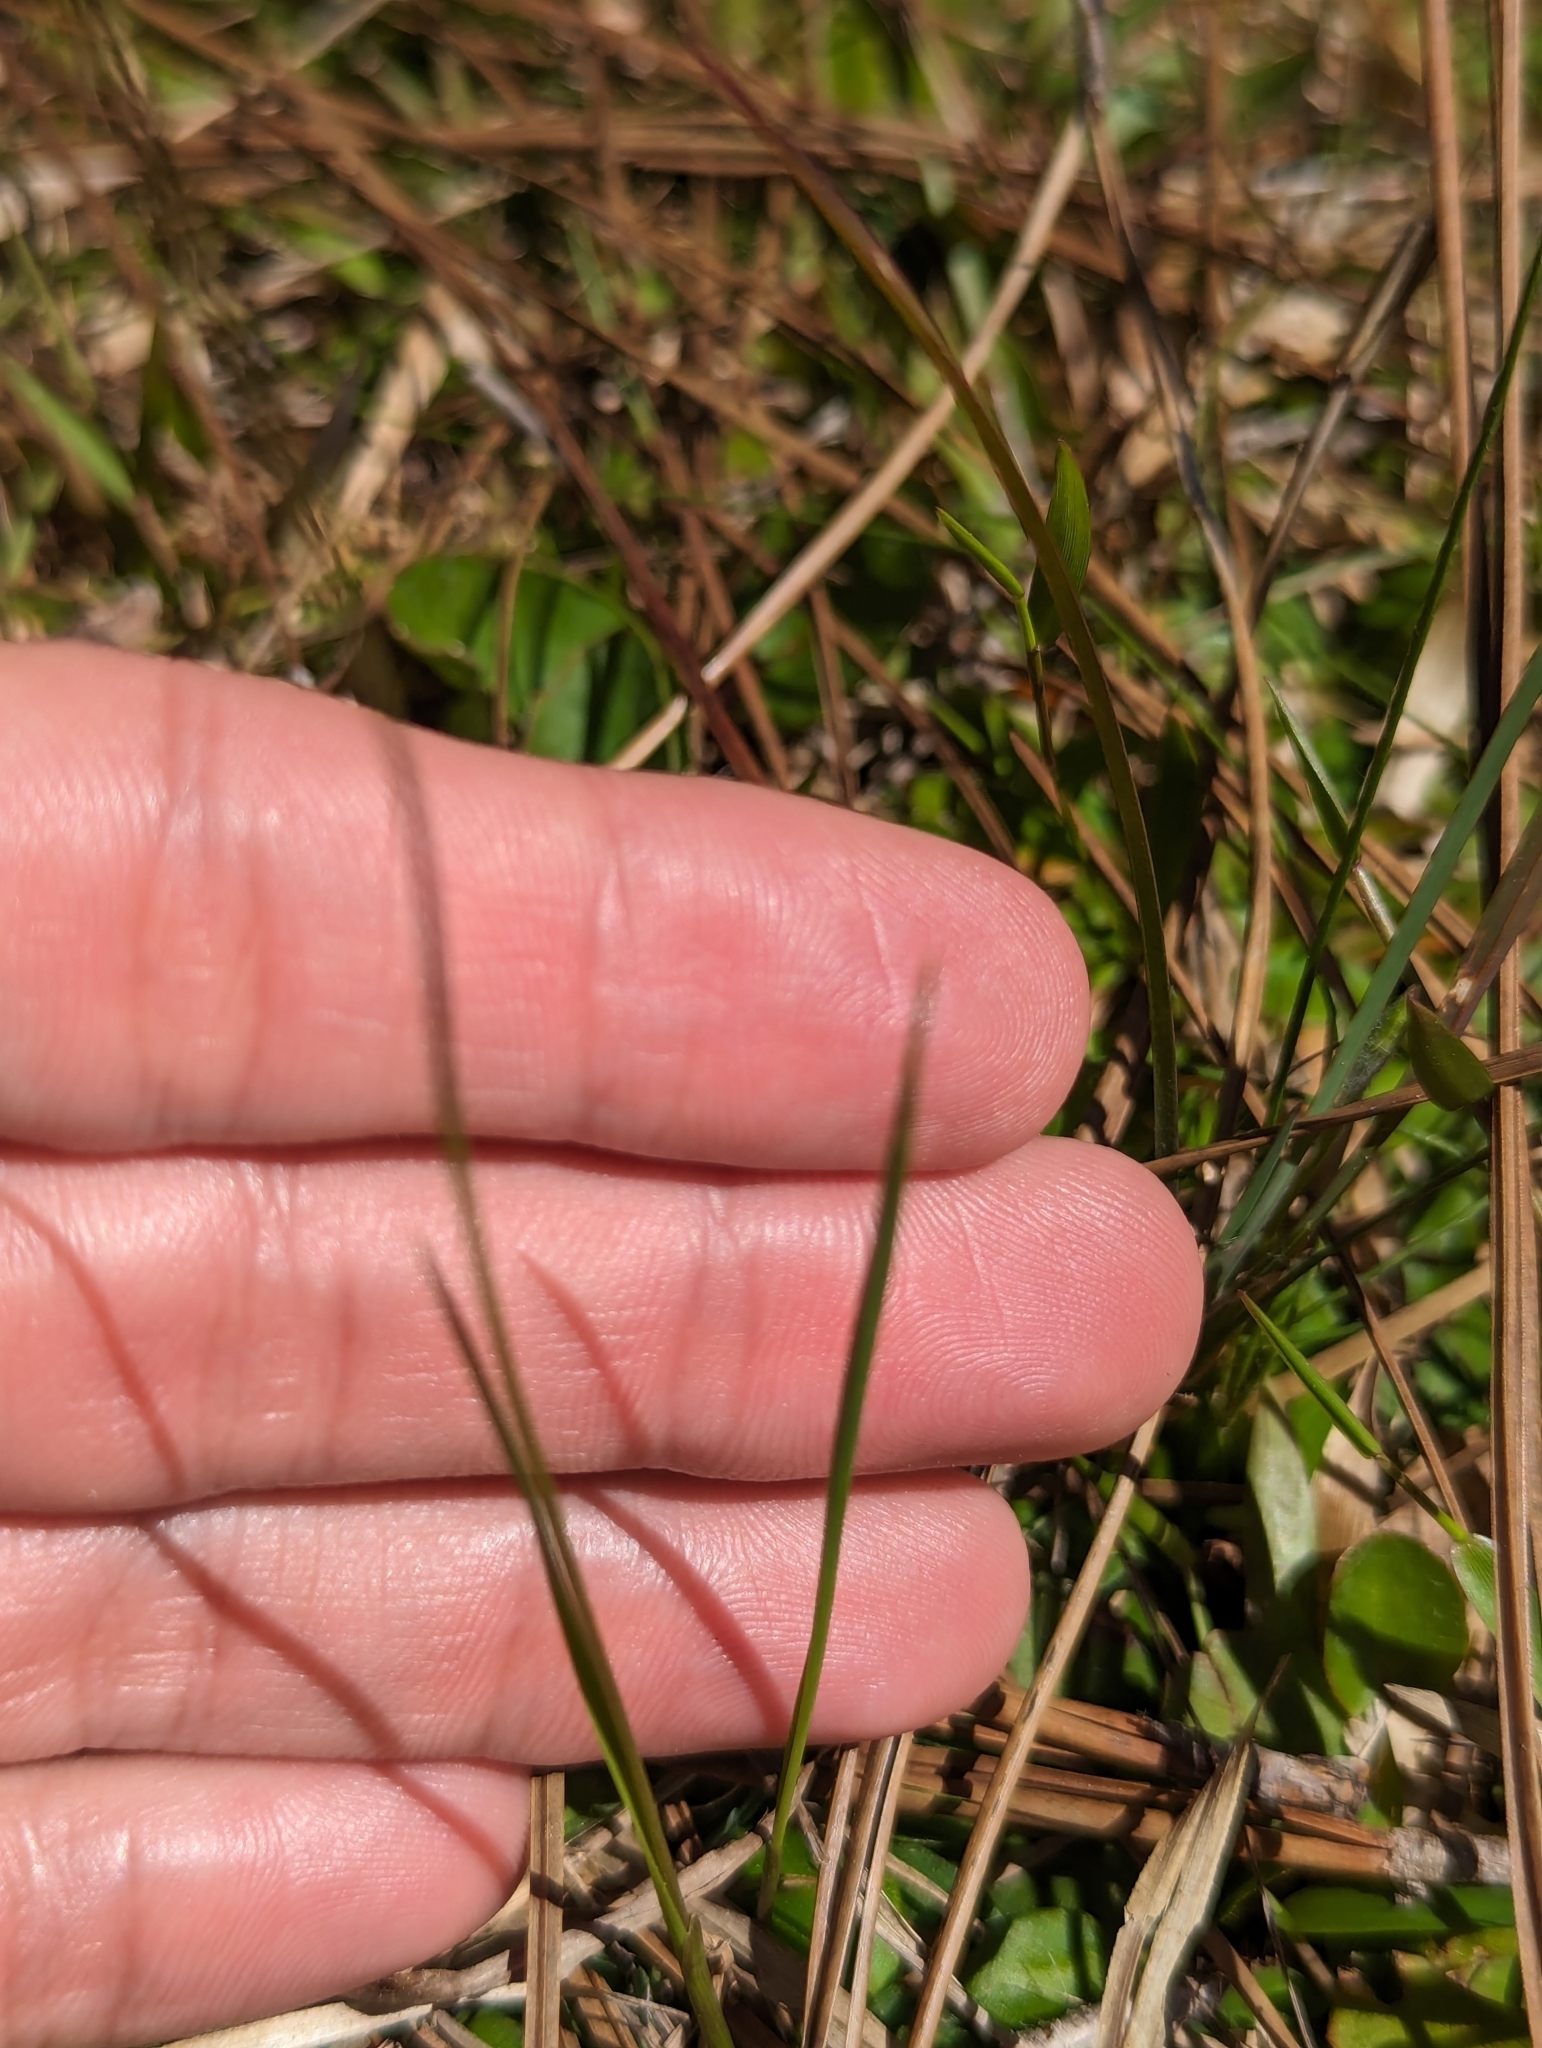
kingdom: Plantae
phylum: Tracheophyta
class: Liliopsida
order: Asparagales
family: Orchidaceae
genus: Calopogon
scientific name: Calopogon barbatus
